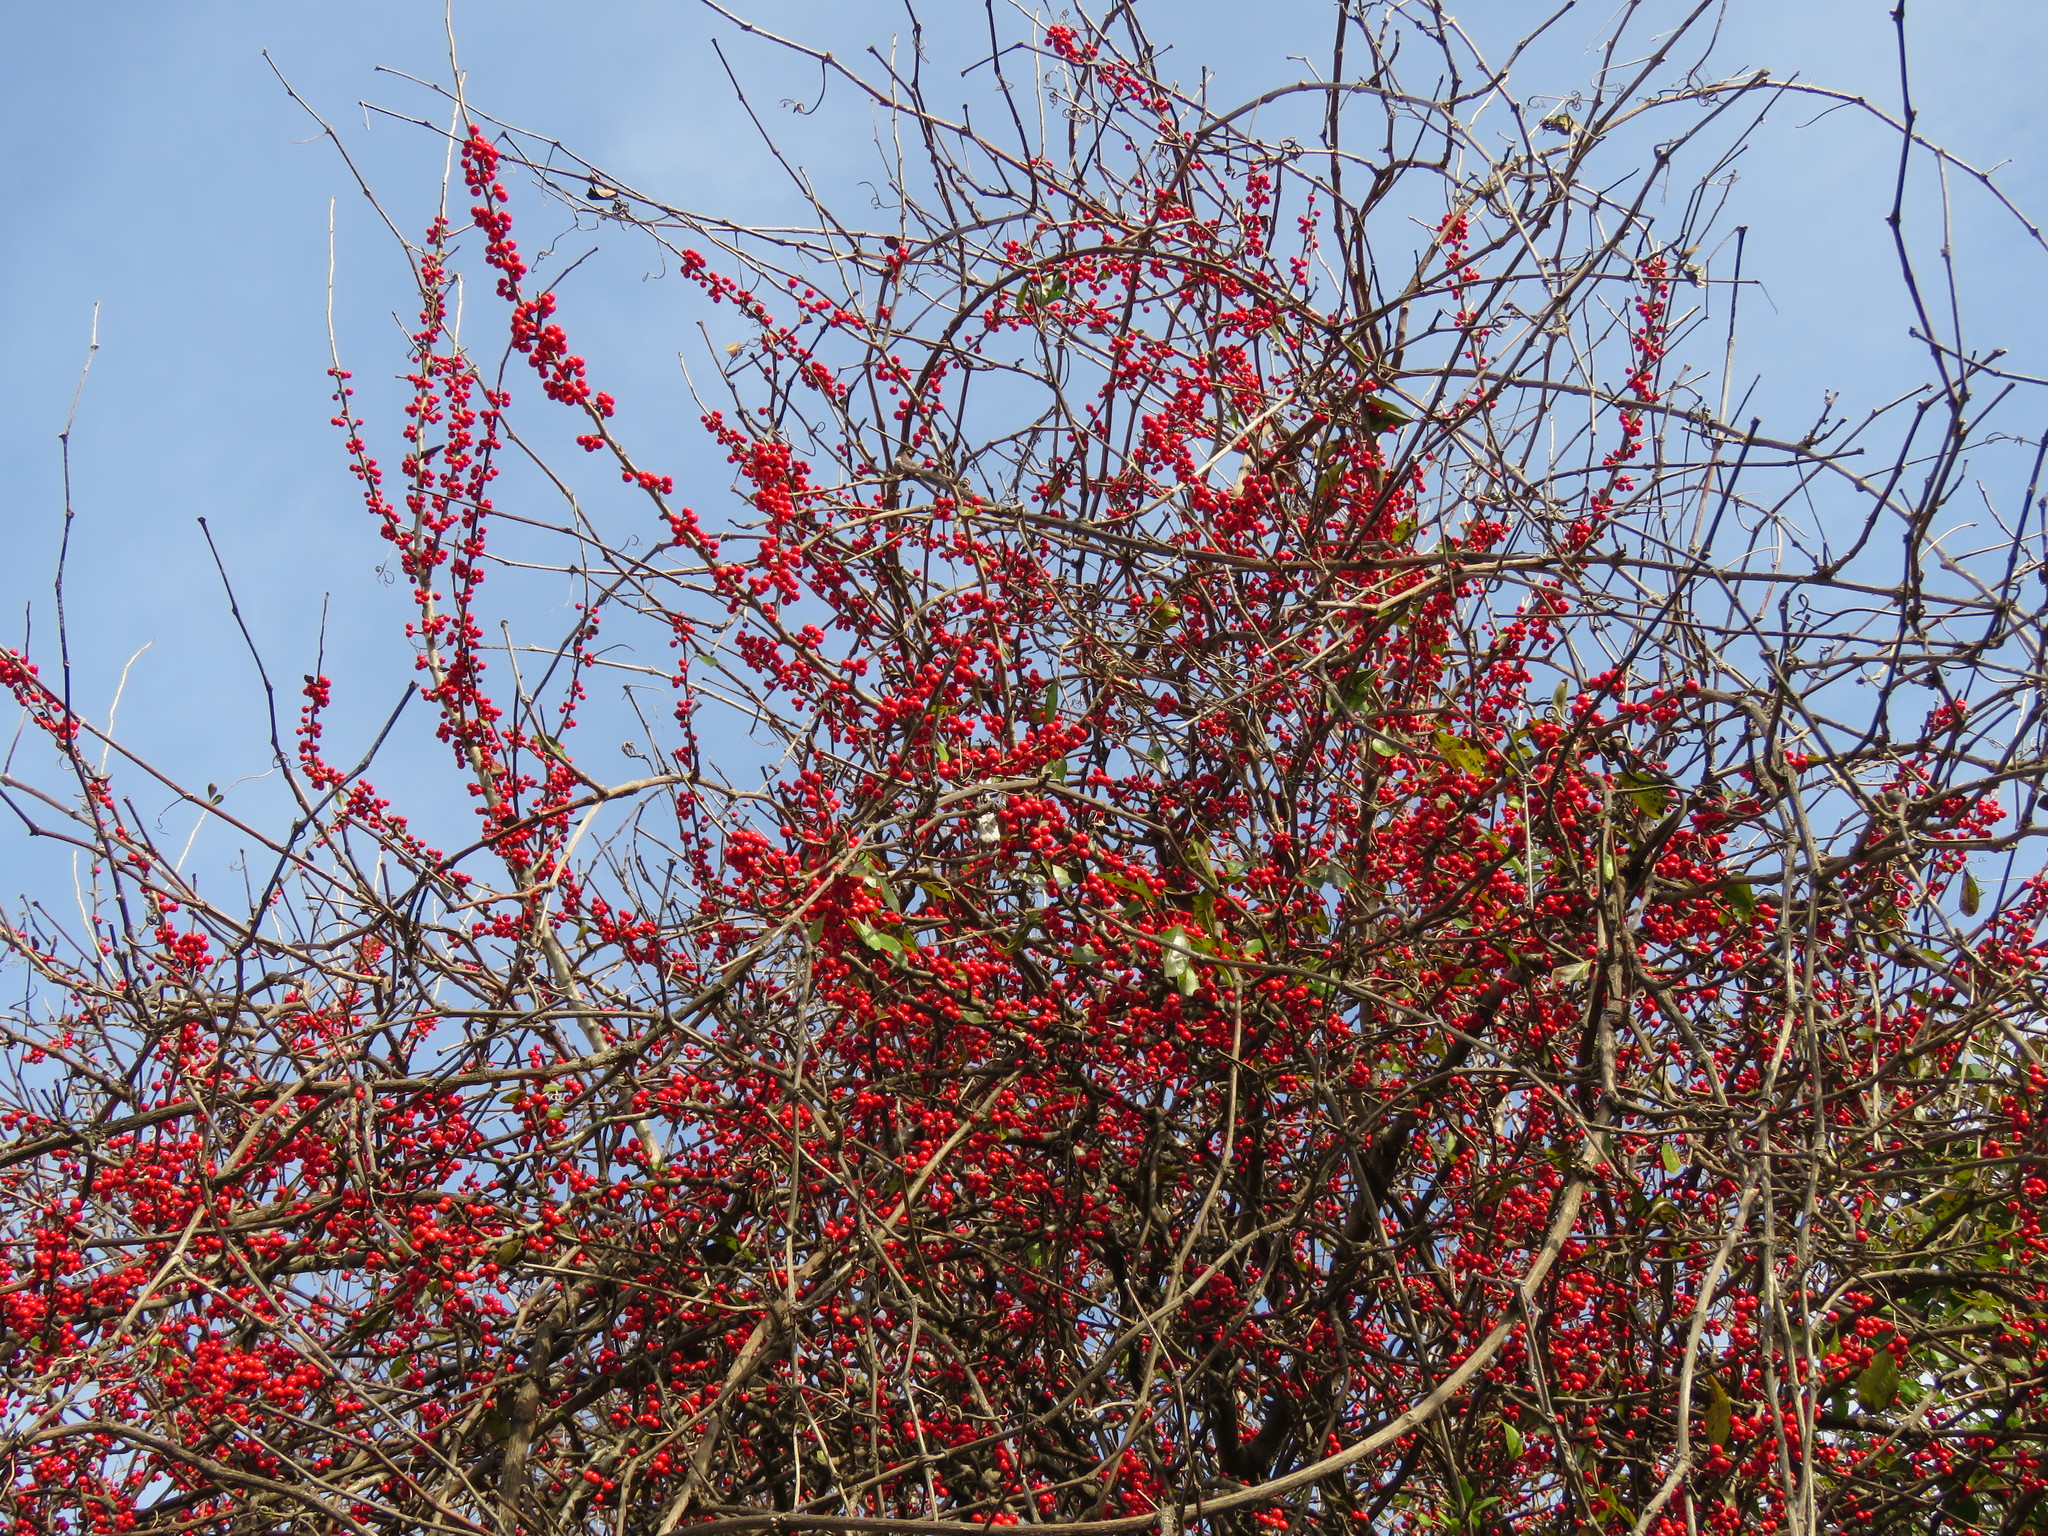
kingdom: Plantae
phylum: Tracheophyta
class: Magnoliopsida
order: Aquifoliales
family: Aquifoliaceae
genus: Ilex
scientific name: Ilex decidua
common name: Possum-haw
